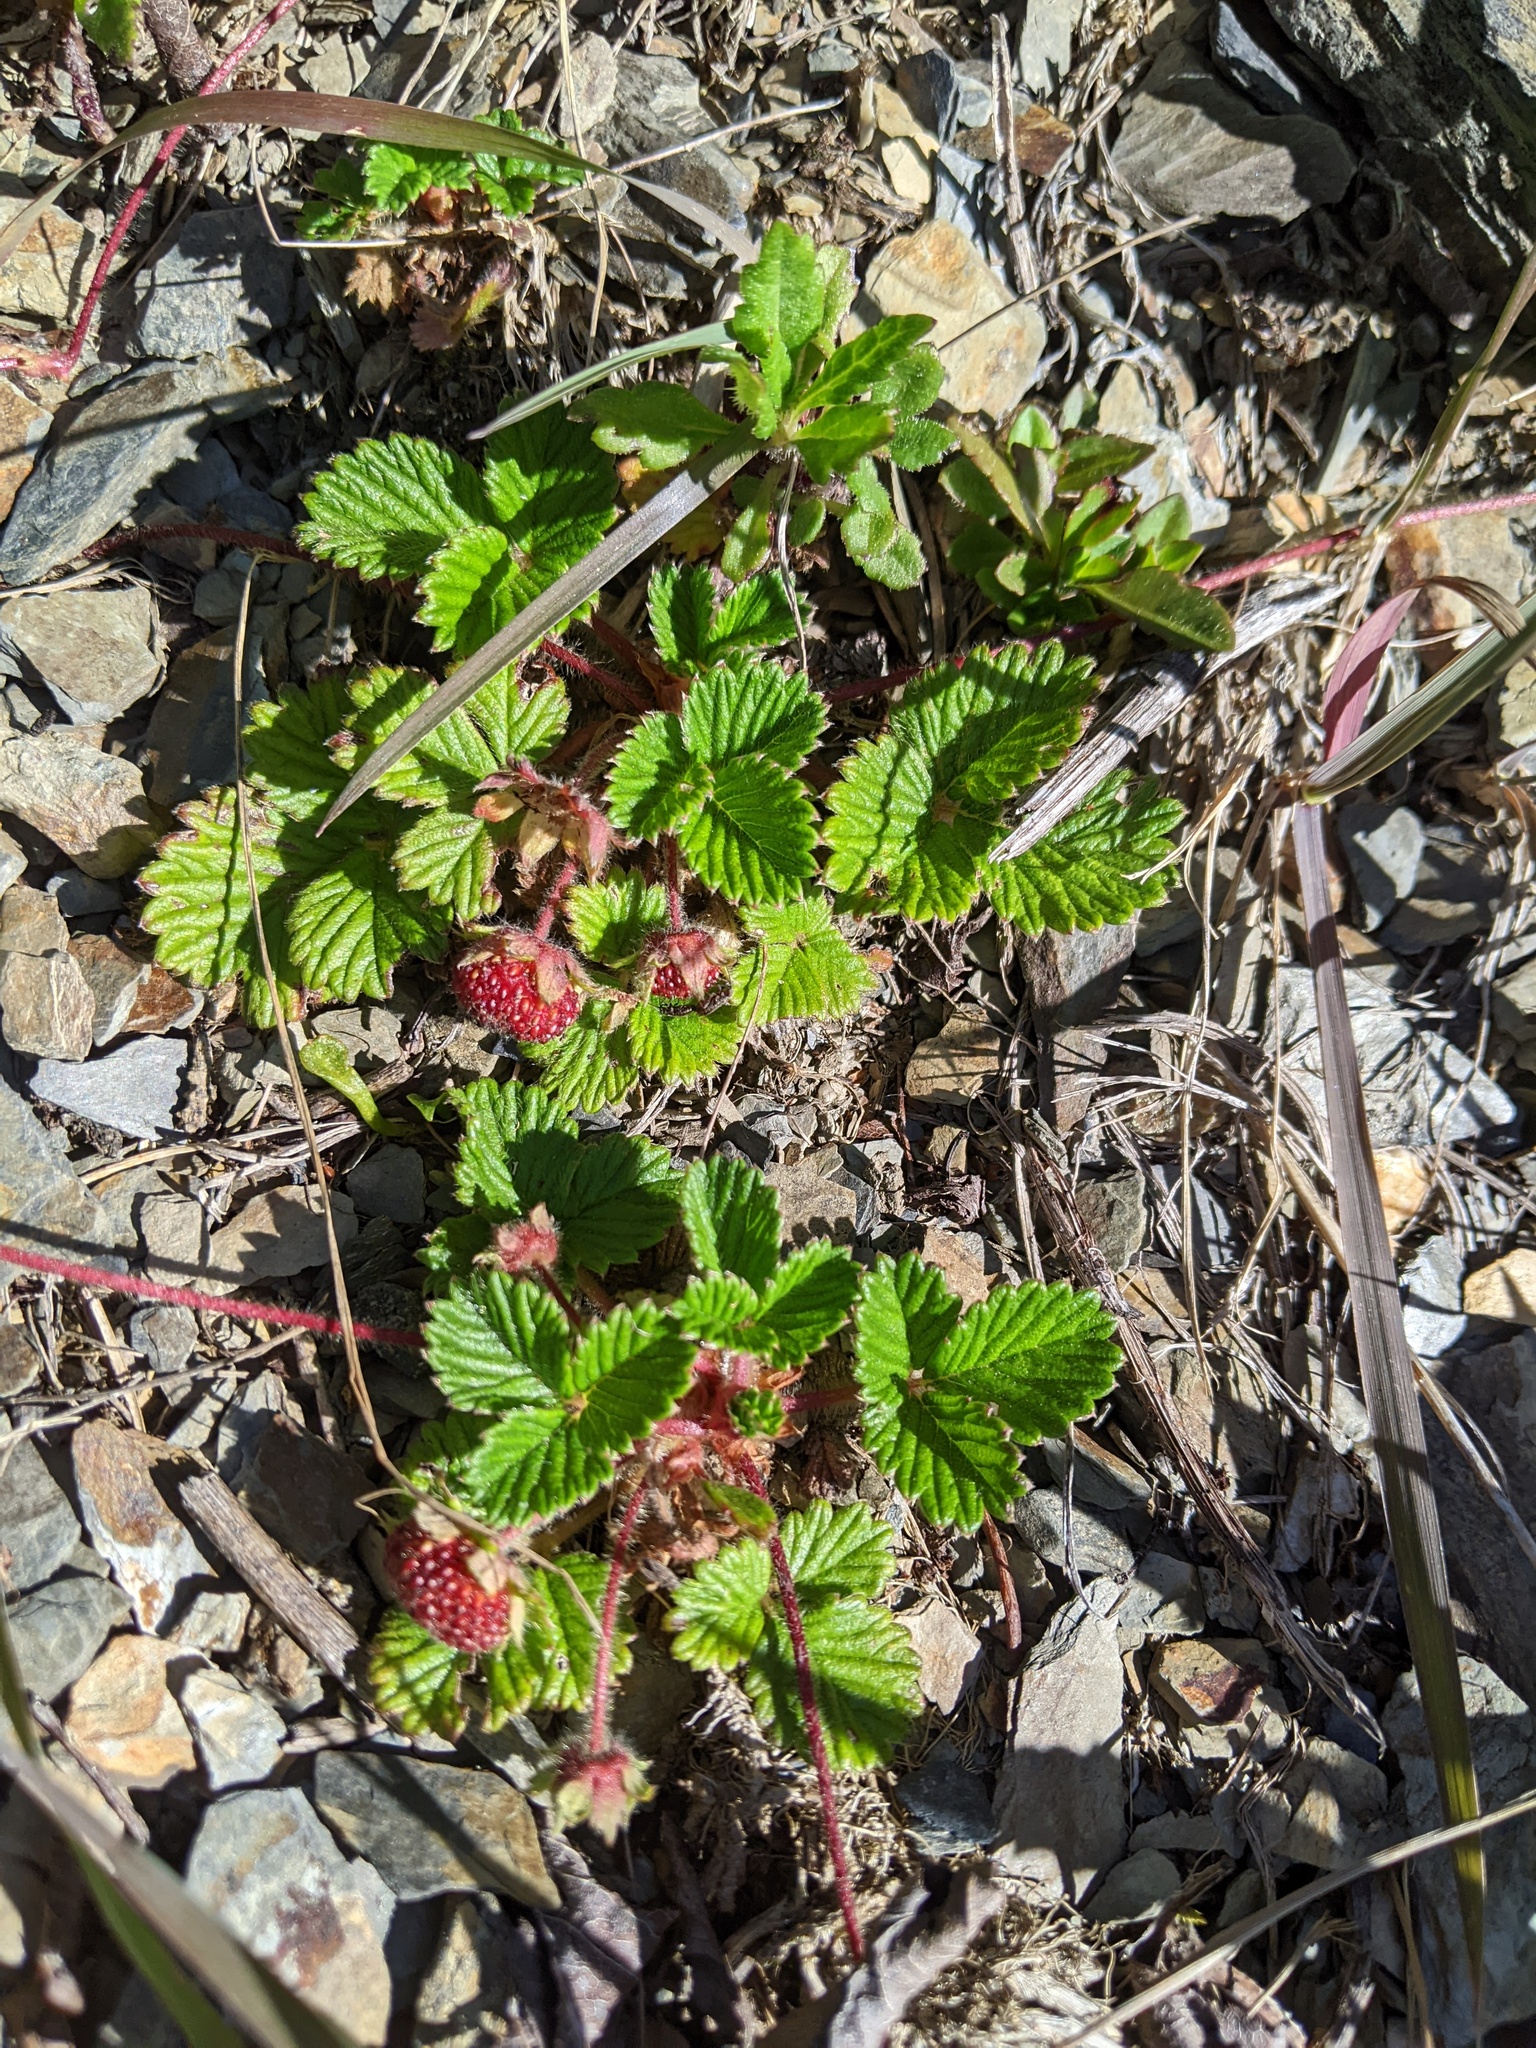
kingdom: Plantae
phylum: Tracheophyta
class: Magnoliopsida
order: Rosales
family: Rosaceae
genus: Fragaria
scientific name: Fragaria nilgerrensis
